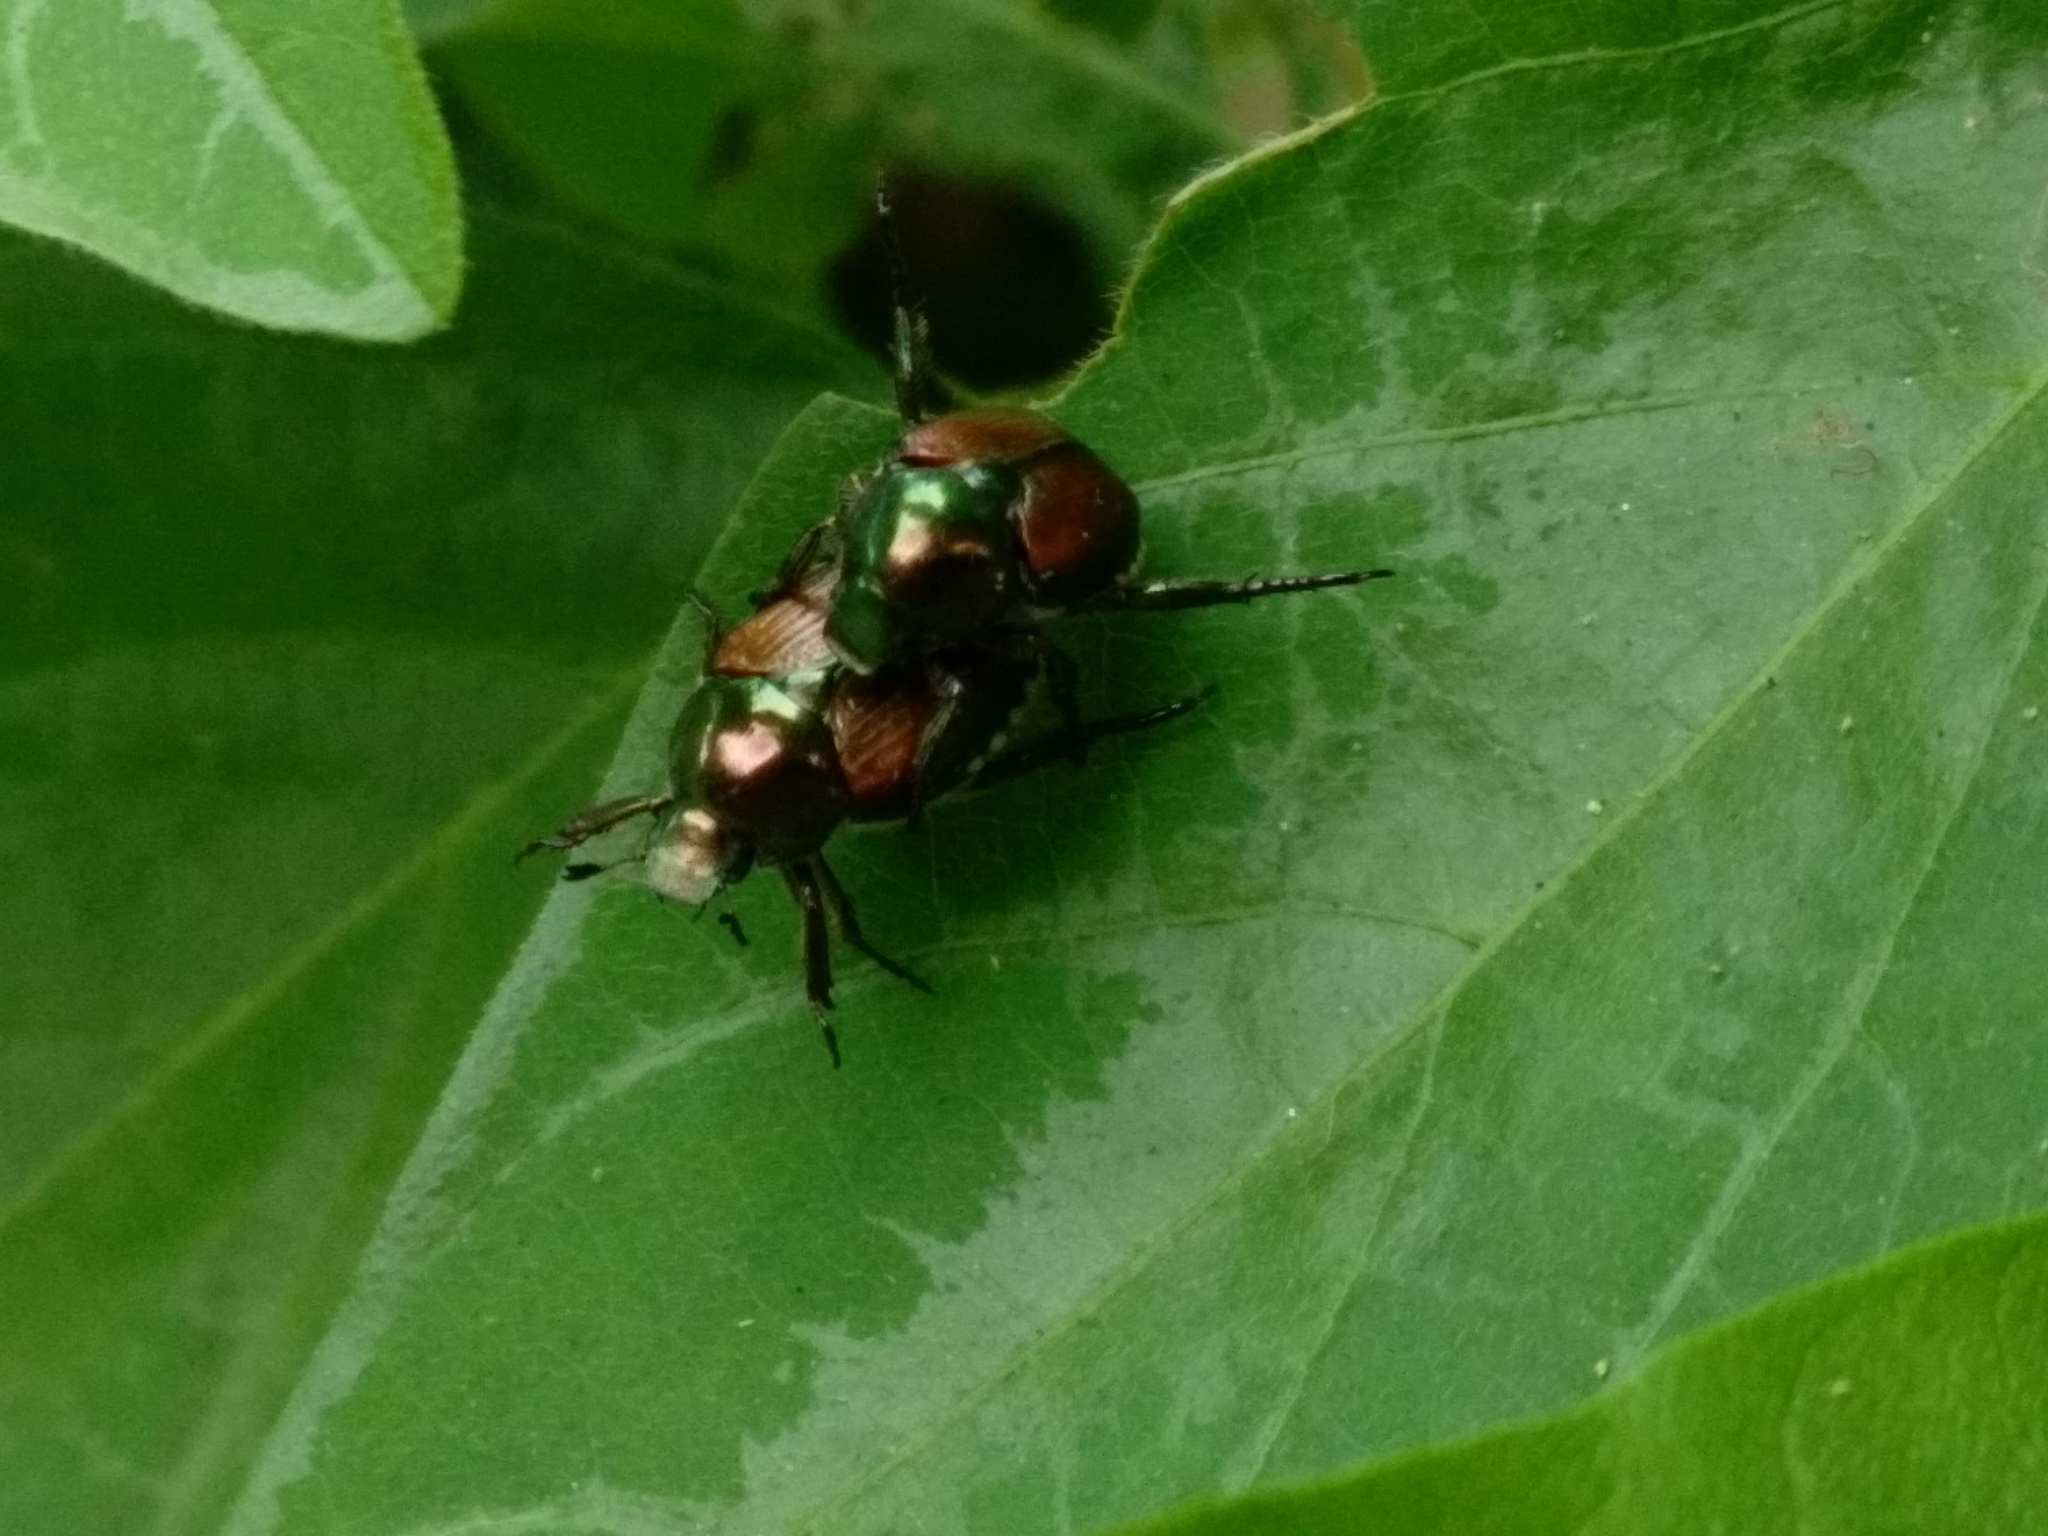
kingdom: Animalia
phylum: Arthropoda
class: Insecta
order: Coleoptera
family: Scarabaeidae
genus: Popillia
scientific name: Popillia japonica
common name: Japanese beetle
